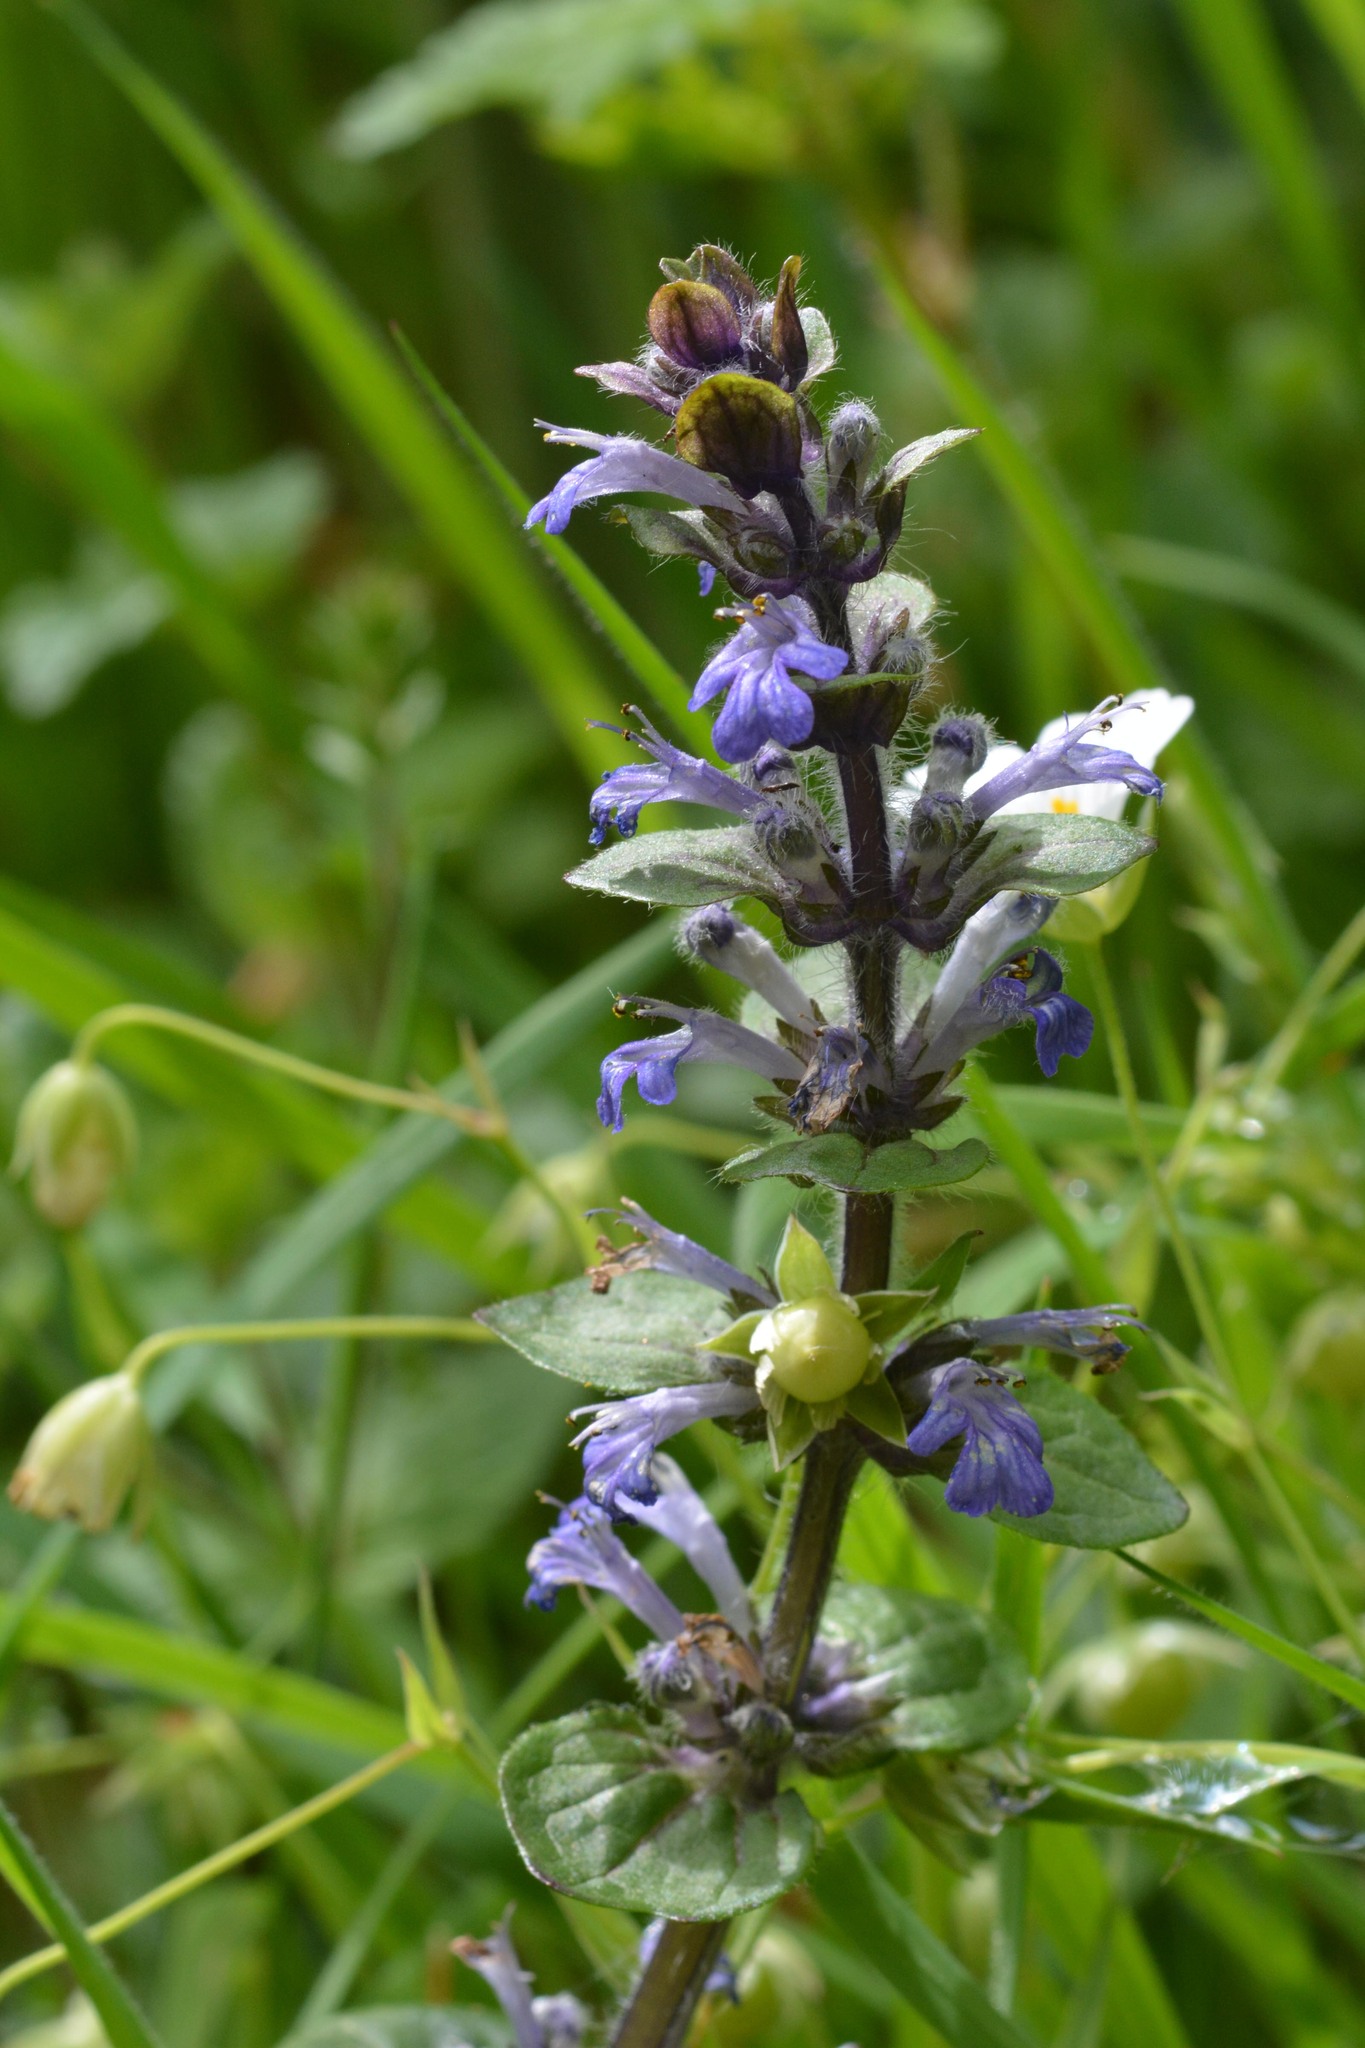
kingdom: Plantae
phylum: Tracheophyta
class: Magnoliopsida
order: Lamiales
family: Lamiaceae
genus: Ajuga
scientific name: Ajuga reptans
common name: Bugle
